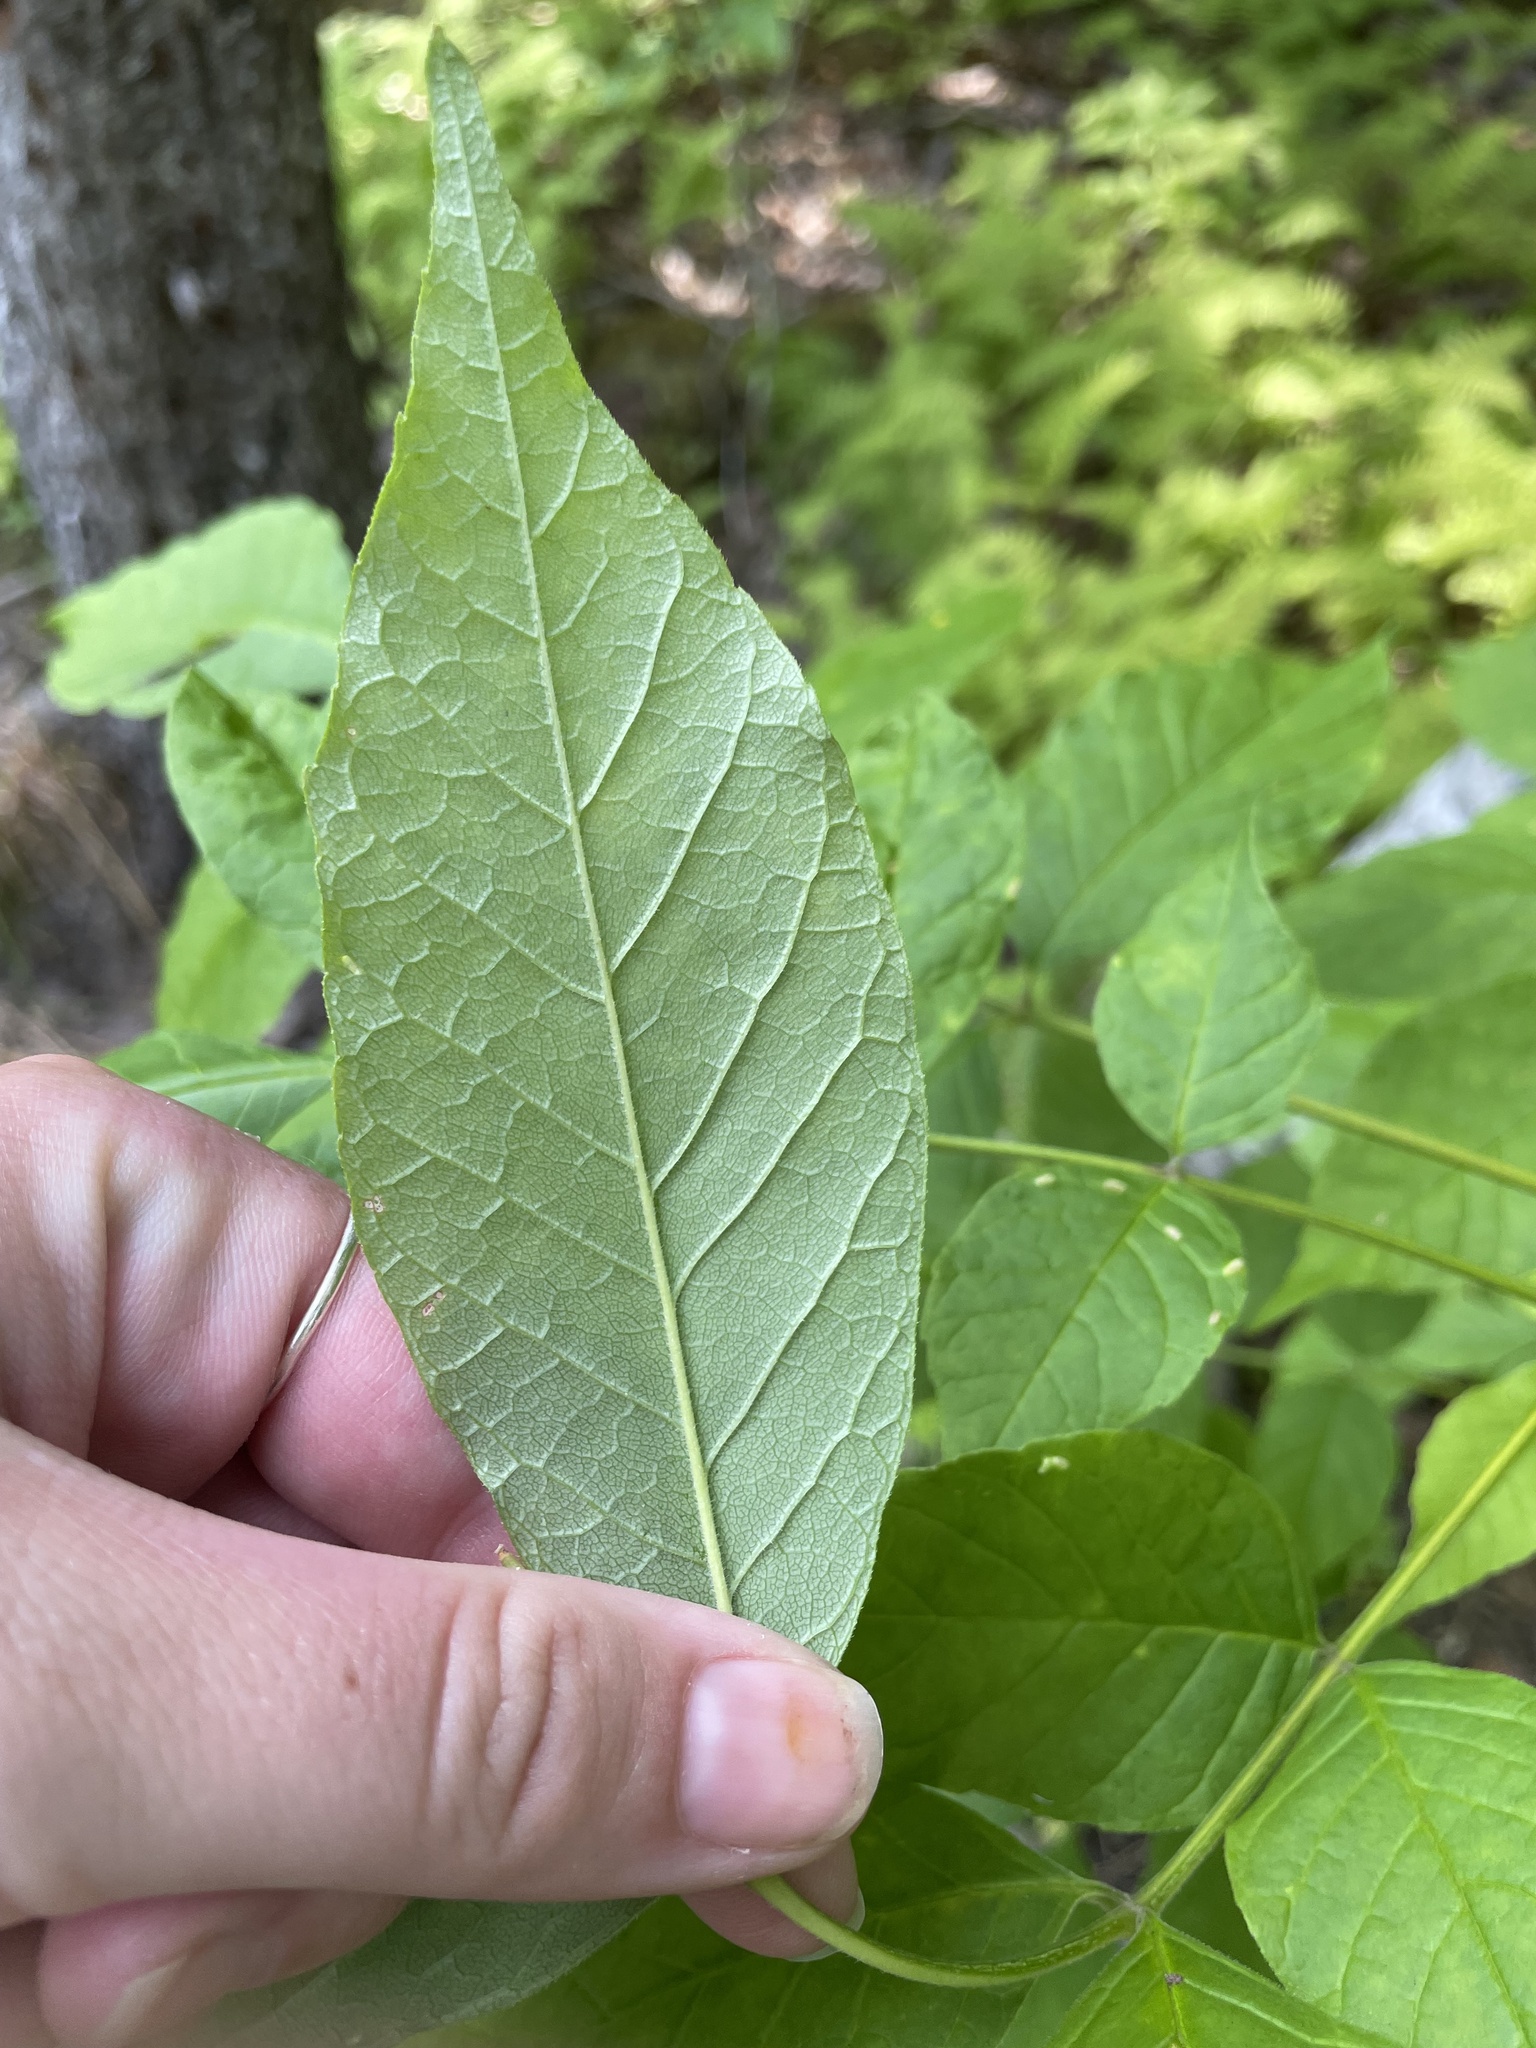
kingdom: Plantae
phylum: Tracheophyta
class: Magnoliopsida
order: Lamiales
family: Oleaceae
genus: Fraxinus
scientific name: Fraxinus americana
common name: White ash
